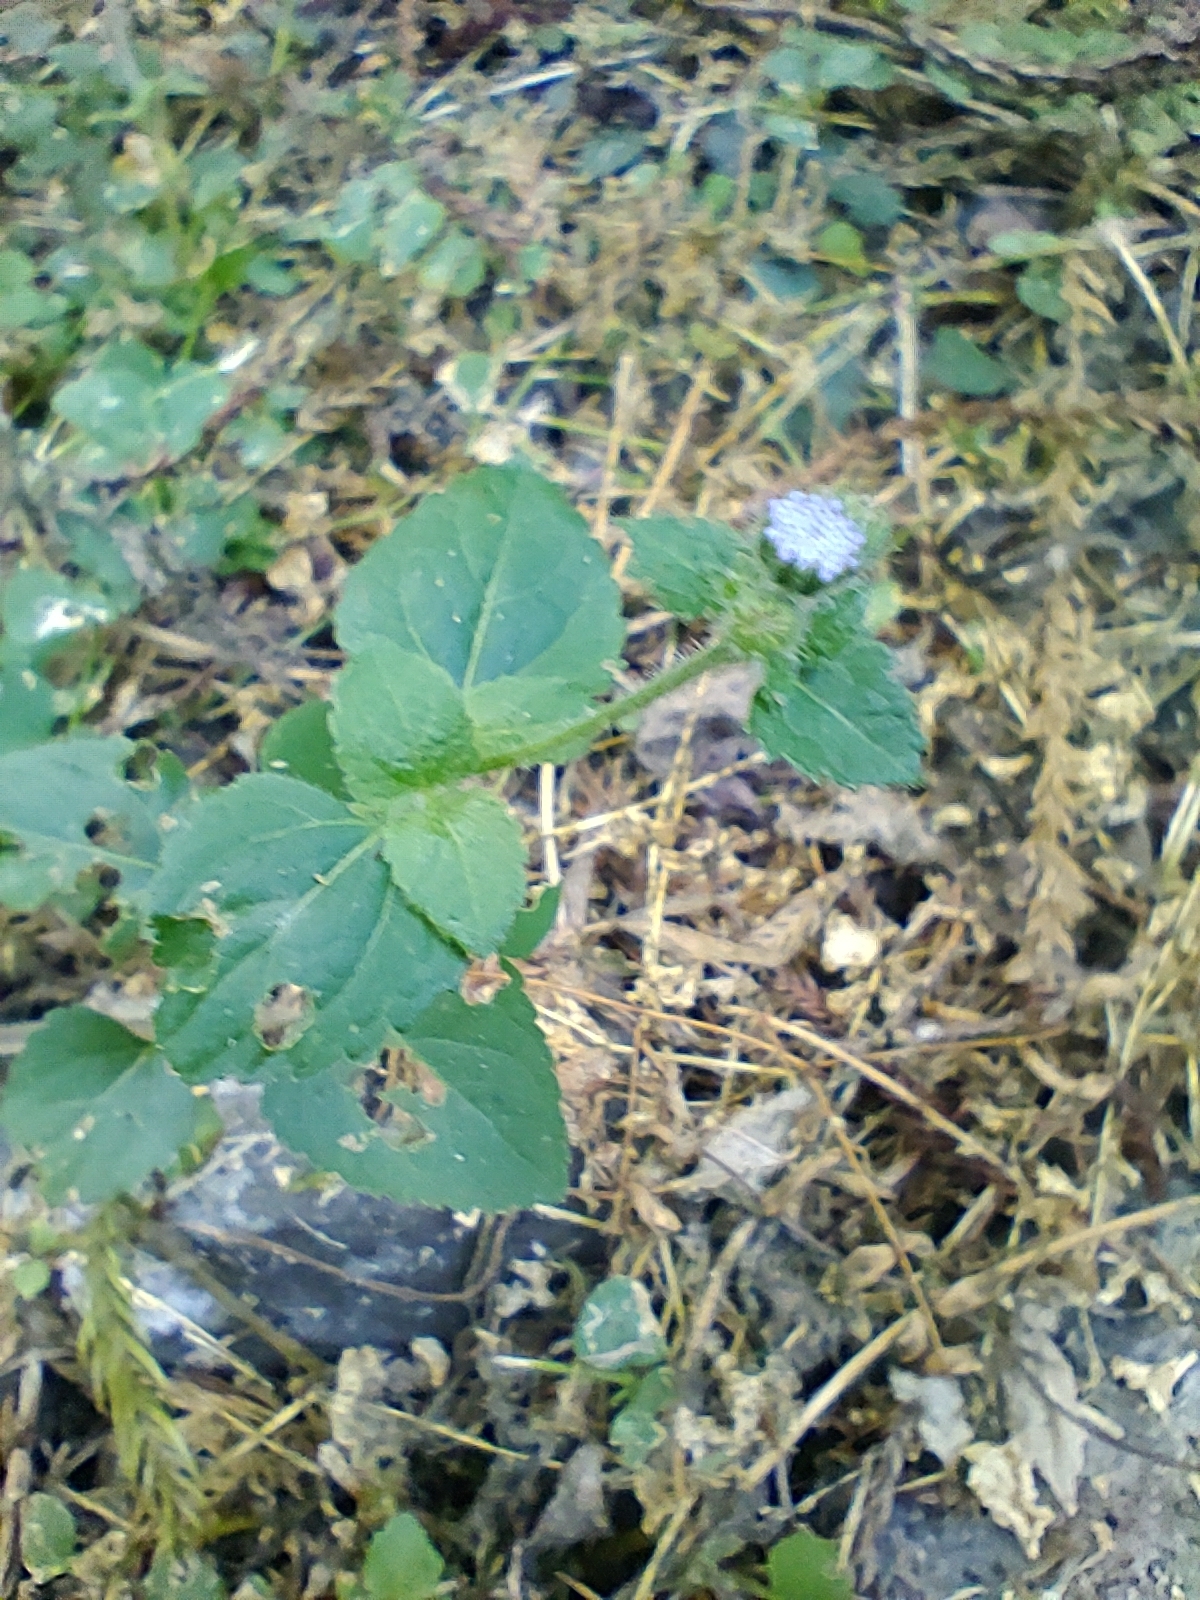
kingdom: Plantae
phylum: Tracheophyta
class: Magnoliopsida
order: Asterales
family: Asteraceae
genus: Ageratum
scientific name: Ageratum houstonianum
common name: Bluemink
